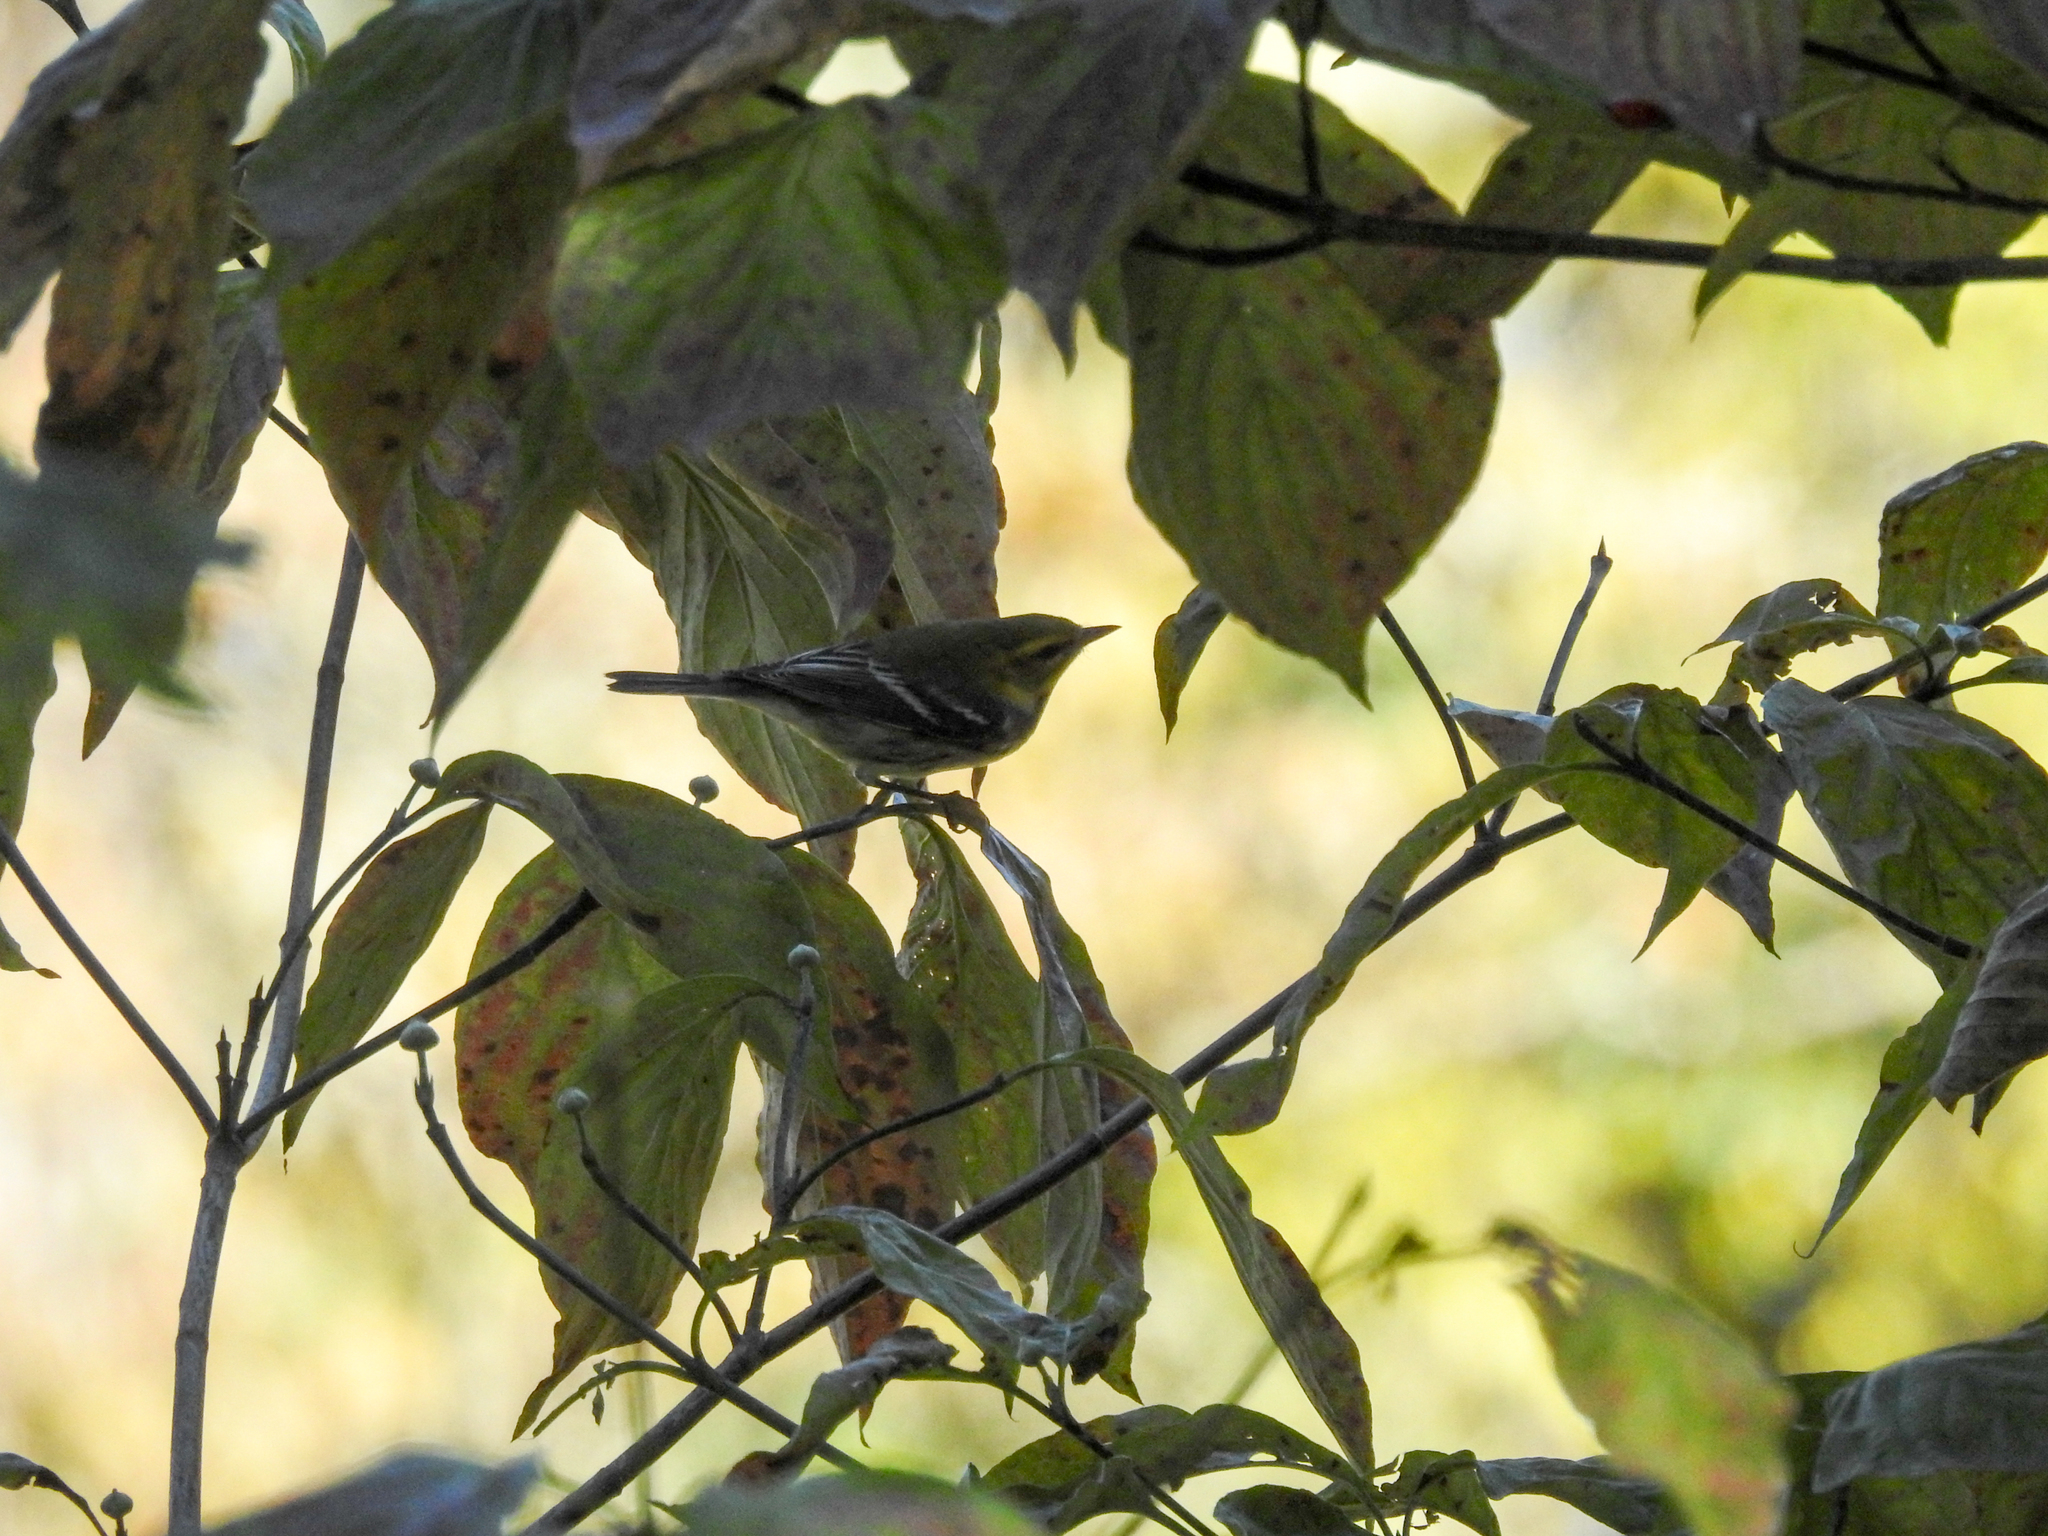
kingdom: Animalia
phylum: Chordata
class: Aves
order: Passeriformes
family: Parulidae
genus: Setophaga
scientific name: Setophaga virens
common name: Black-throated green warbler
